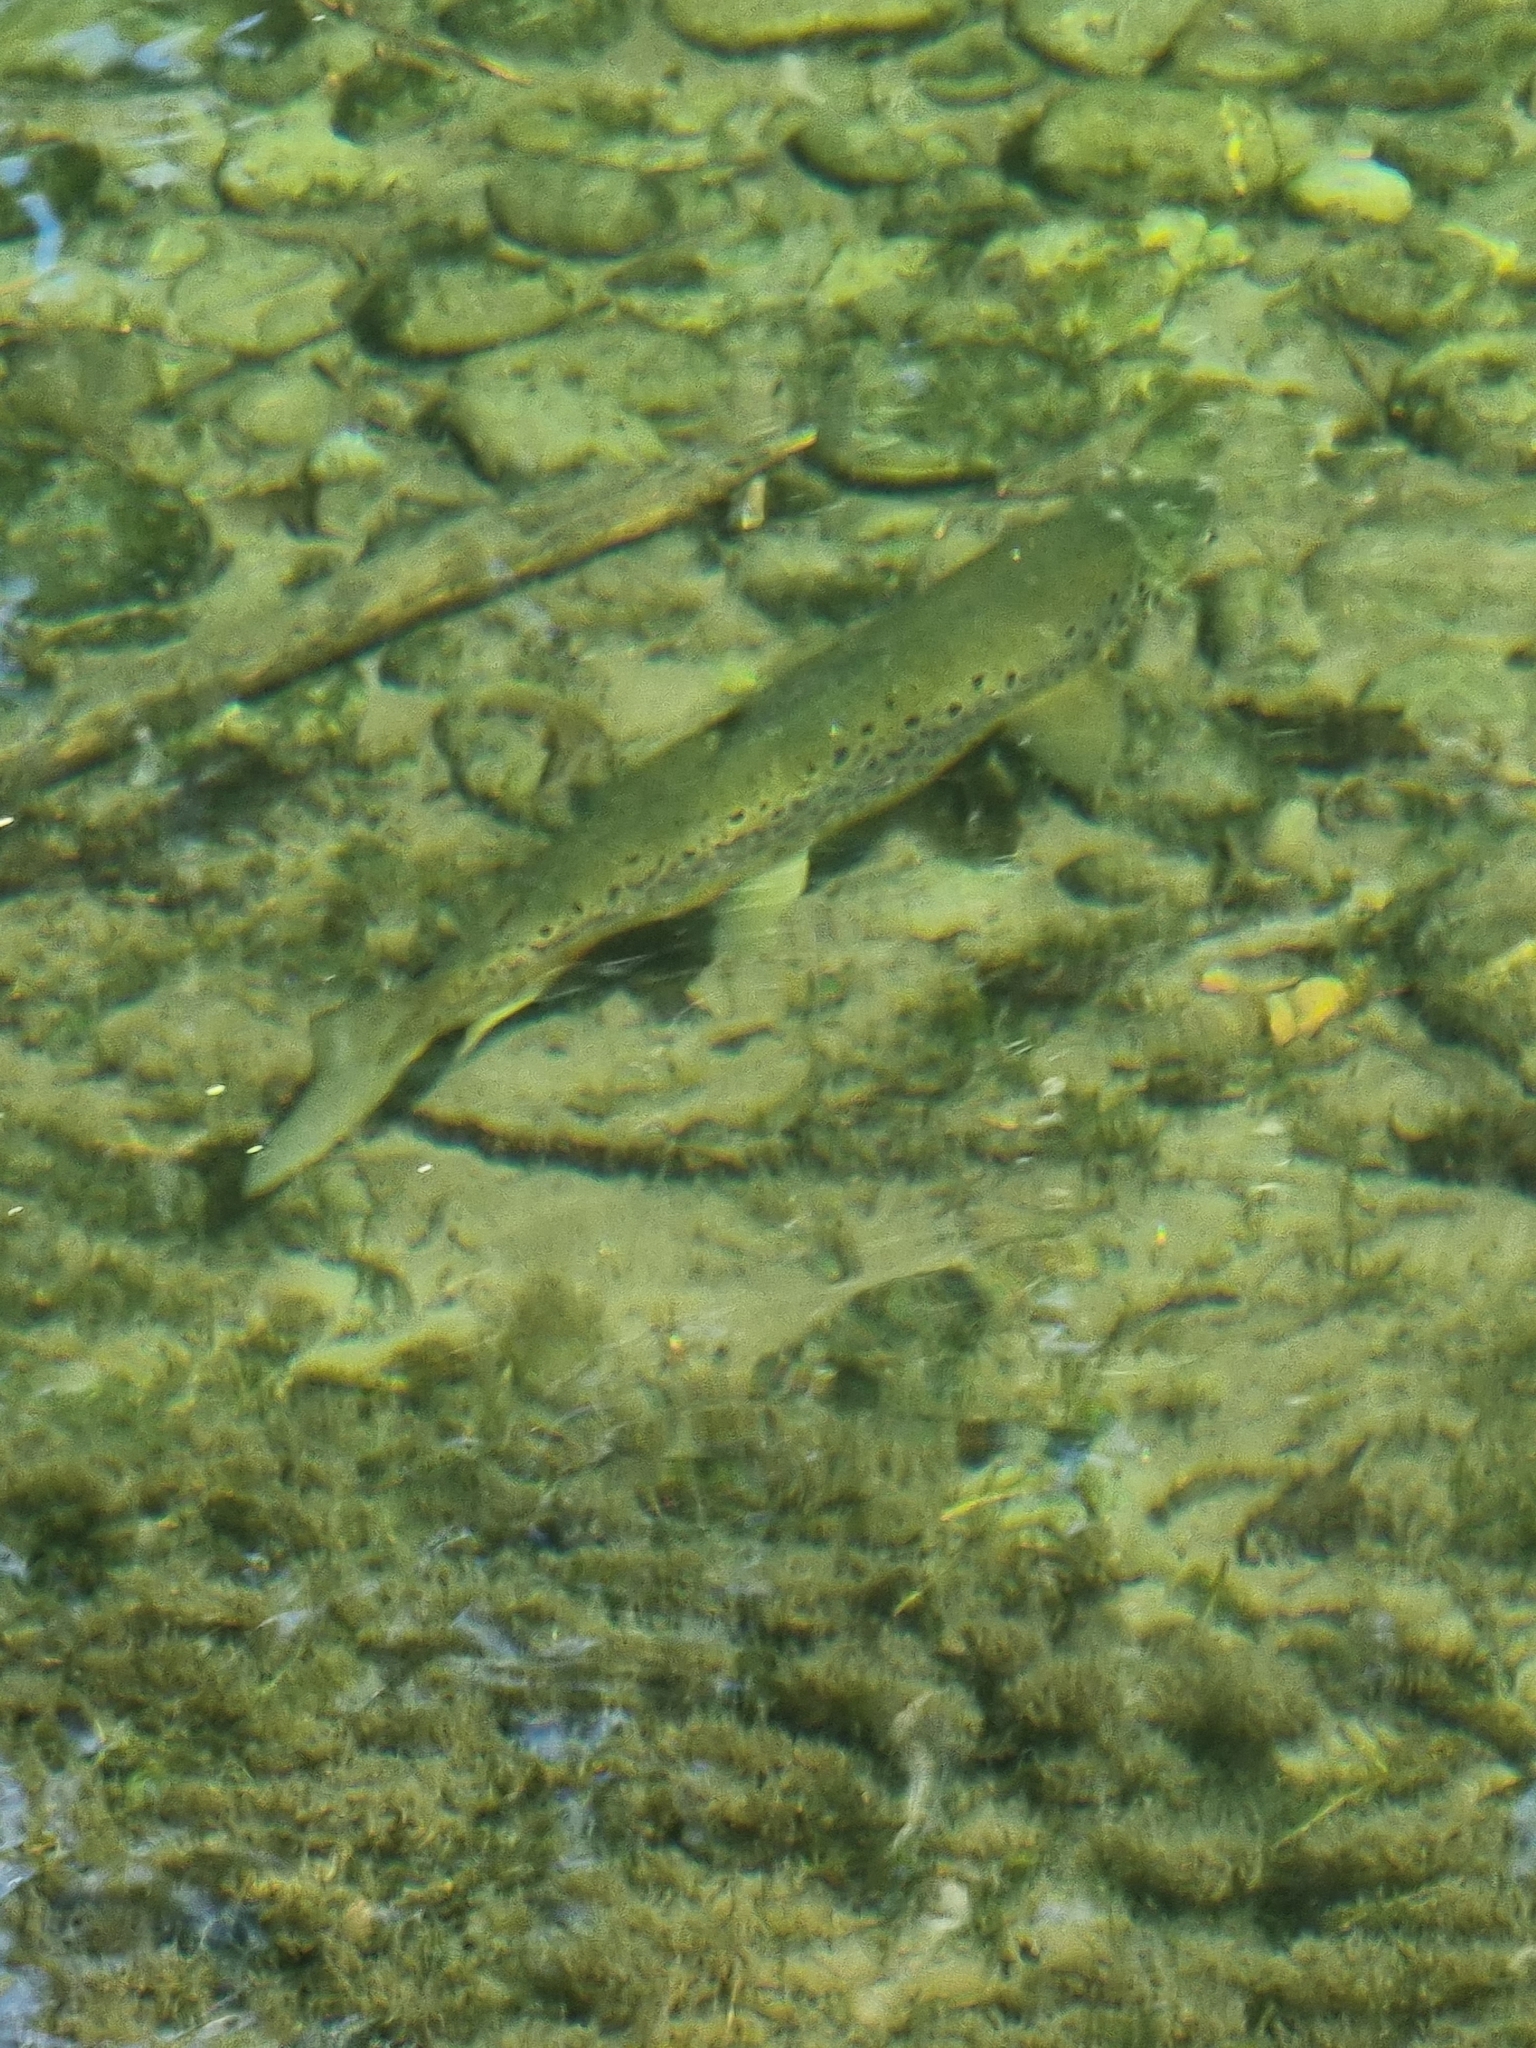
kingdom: Animalia
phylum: Chordata
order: Salmoniformes
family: Salmonidae
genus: Salmo
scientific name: Salmo trutta
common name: Brown trout
